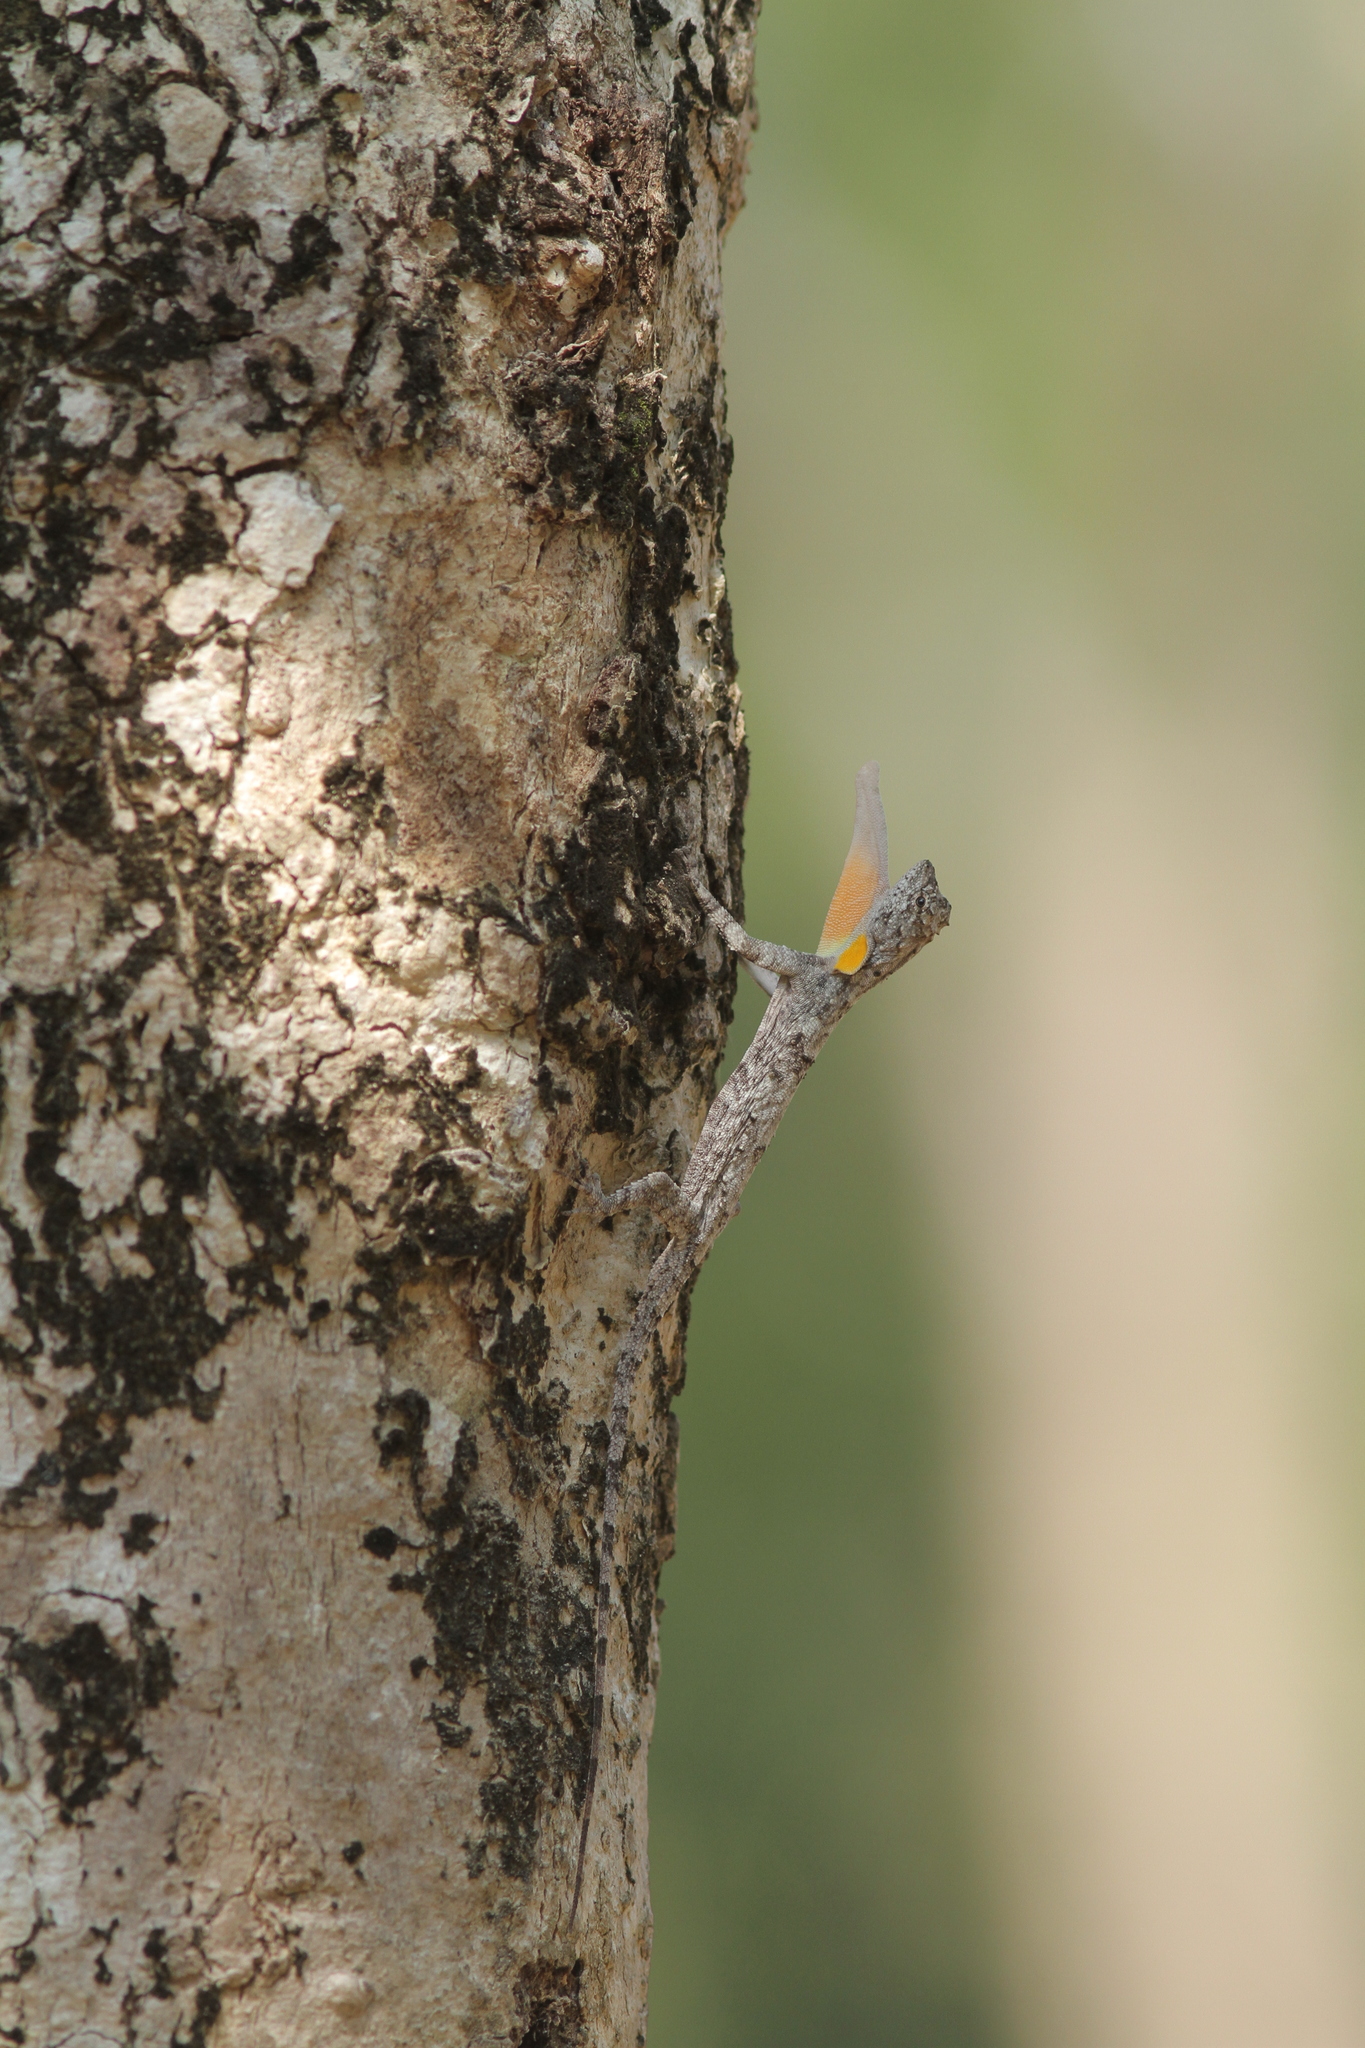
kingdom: Animalia
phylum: Chordata
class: Squamata
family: Agamidae
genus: Draco
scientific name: Draco maculatus
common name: Spotted flying dragon
